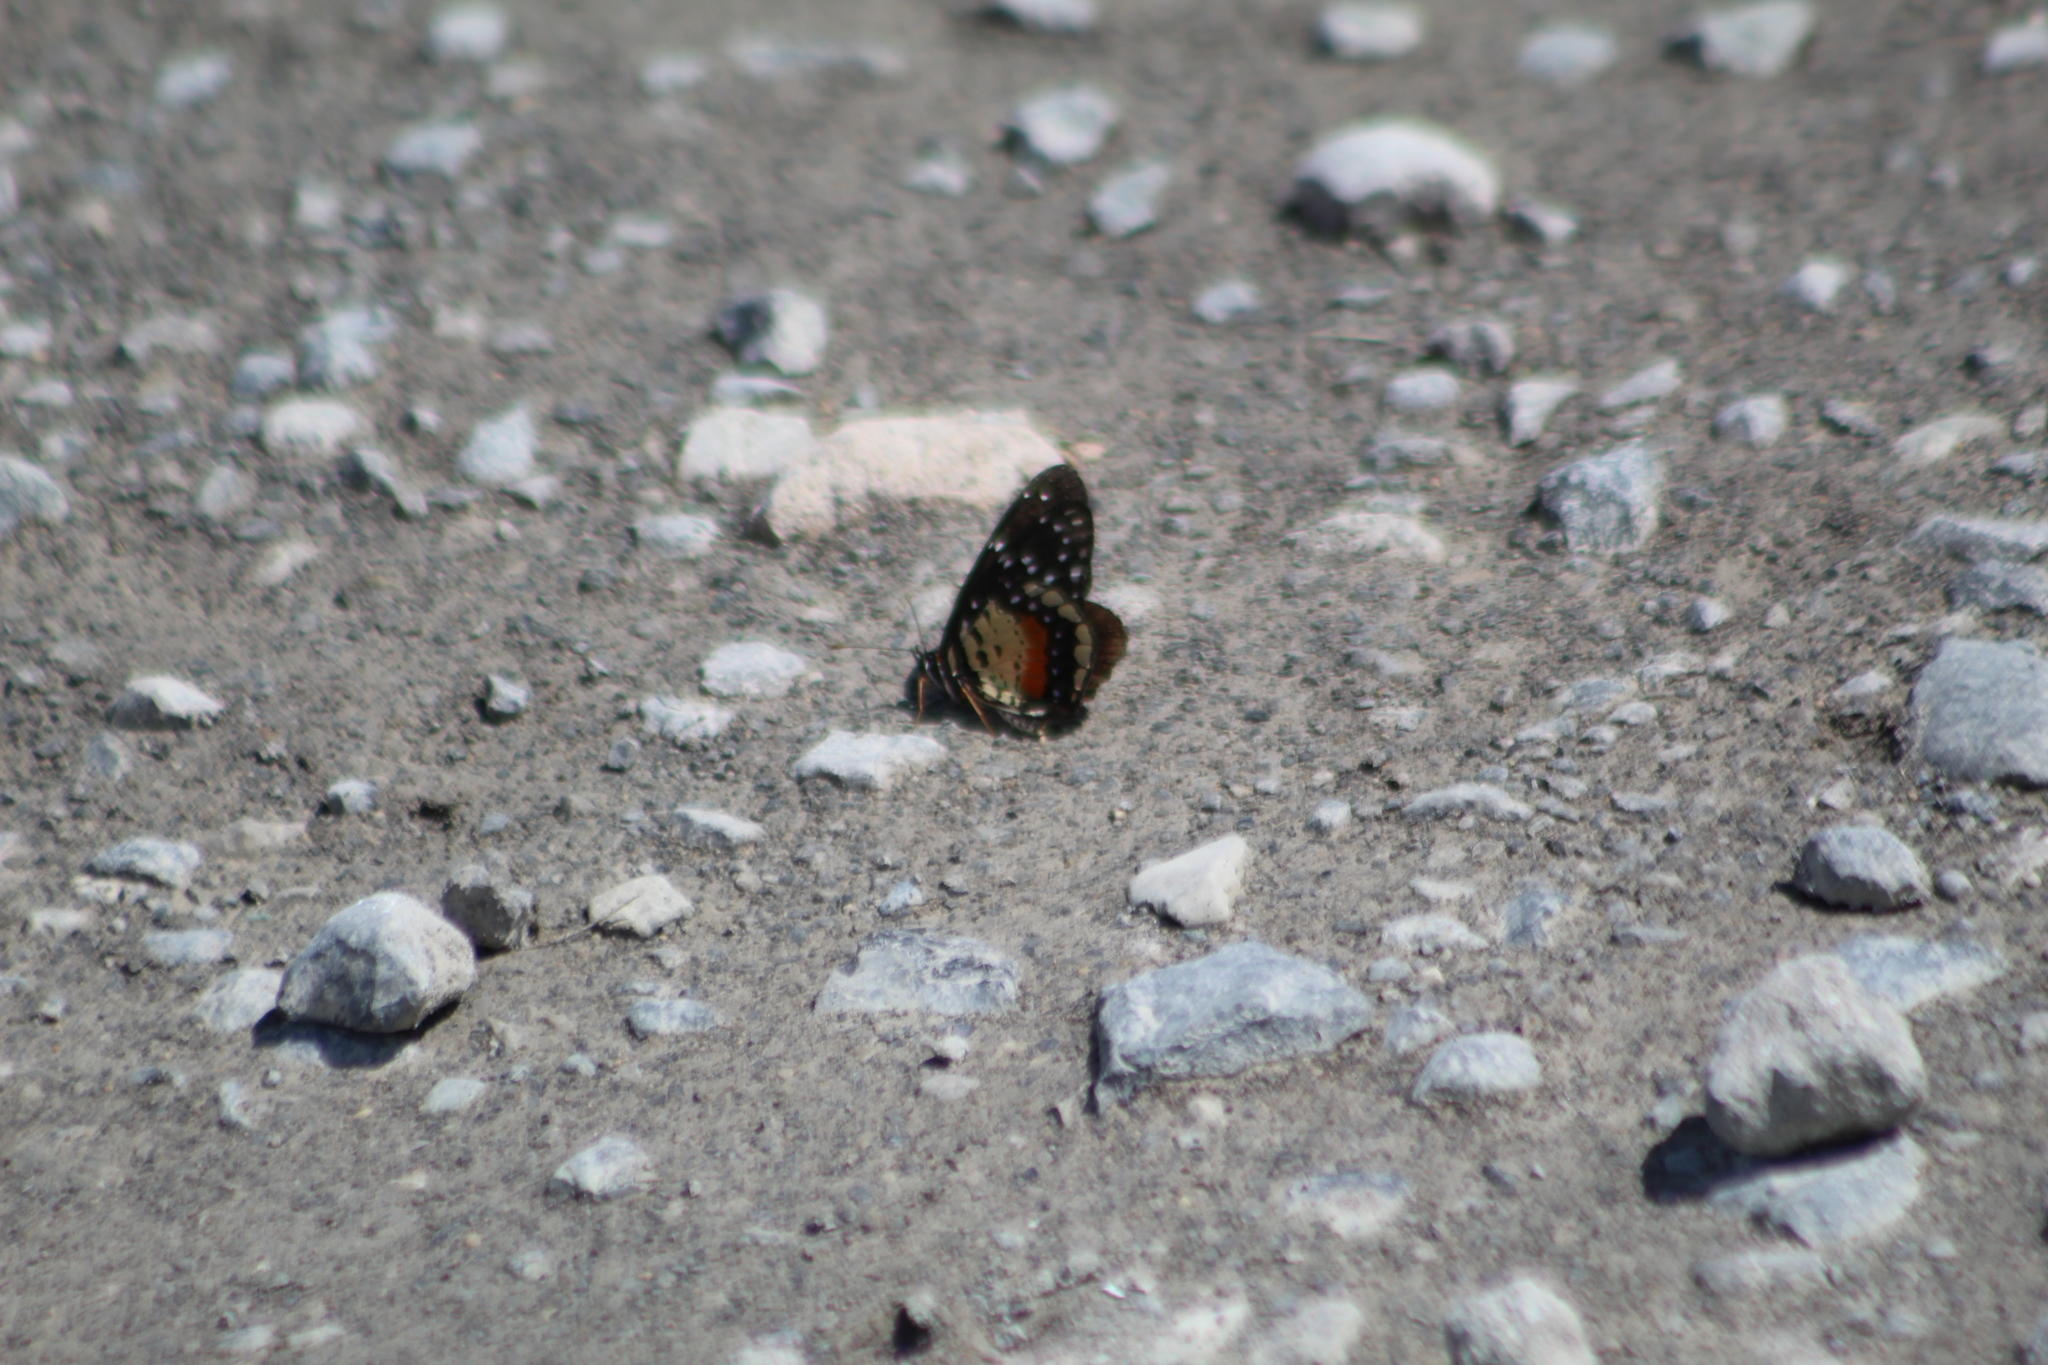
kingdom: Animalia
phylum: Arthropoda
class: Insecta
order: Lepidoptera
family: Nymphalidae
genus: Chlosyne
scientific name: Chlosyne janais
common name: Crimson patch
